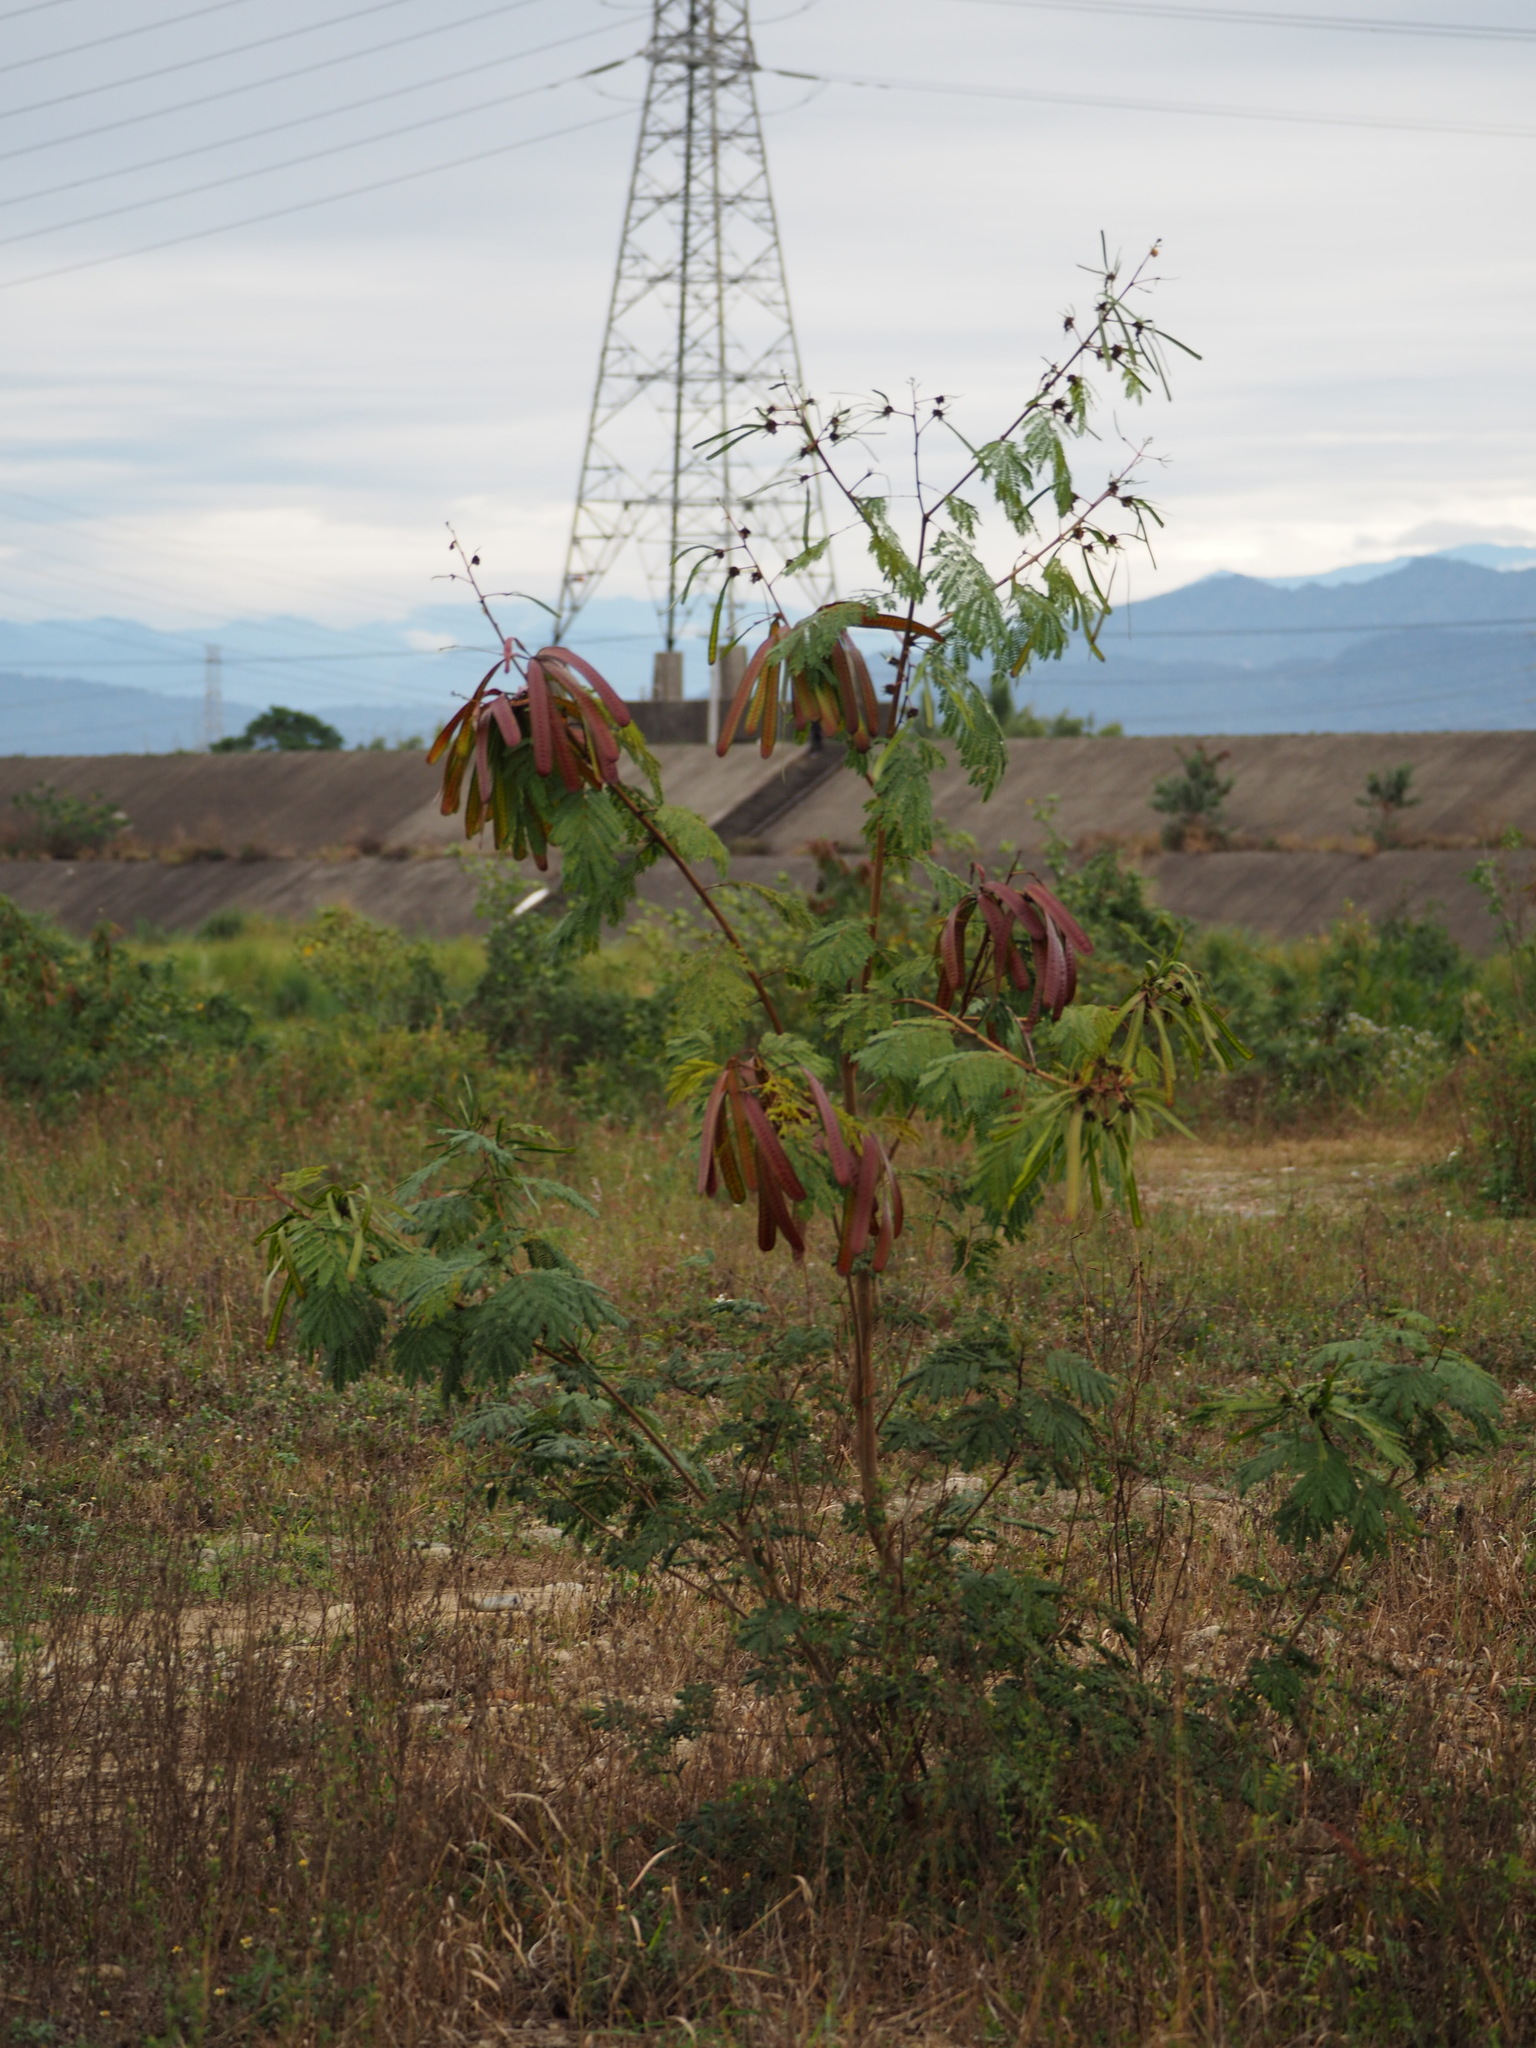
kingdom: Plantae
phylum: Tracheophyta
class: Magnoliopsida
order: Fabales
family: Fabaceae
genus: Leucaena
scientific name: Leucaena leucocephala
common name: White leadtree
